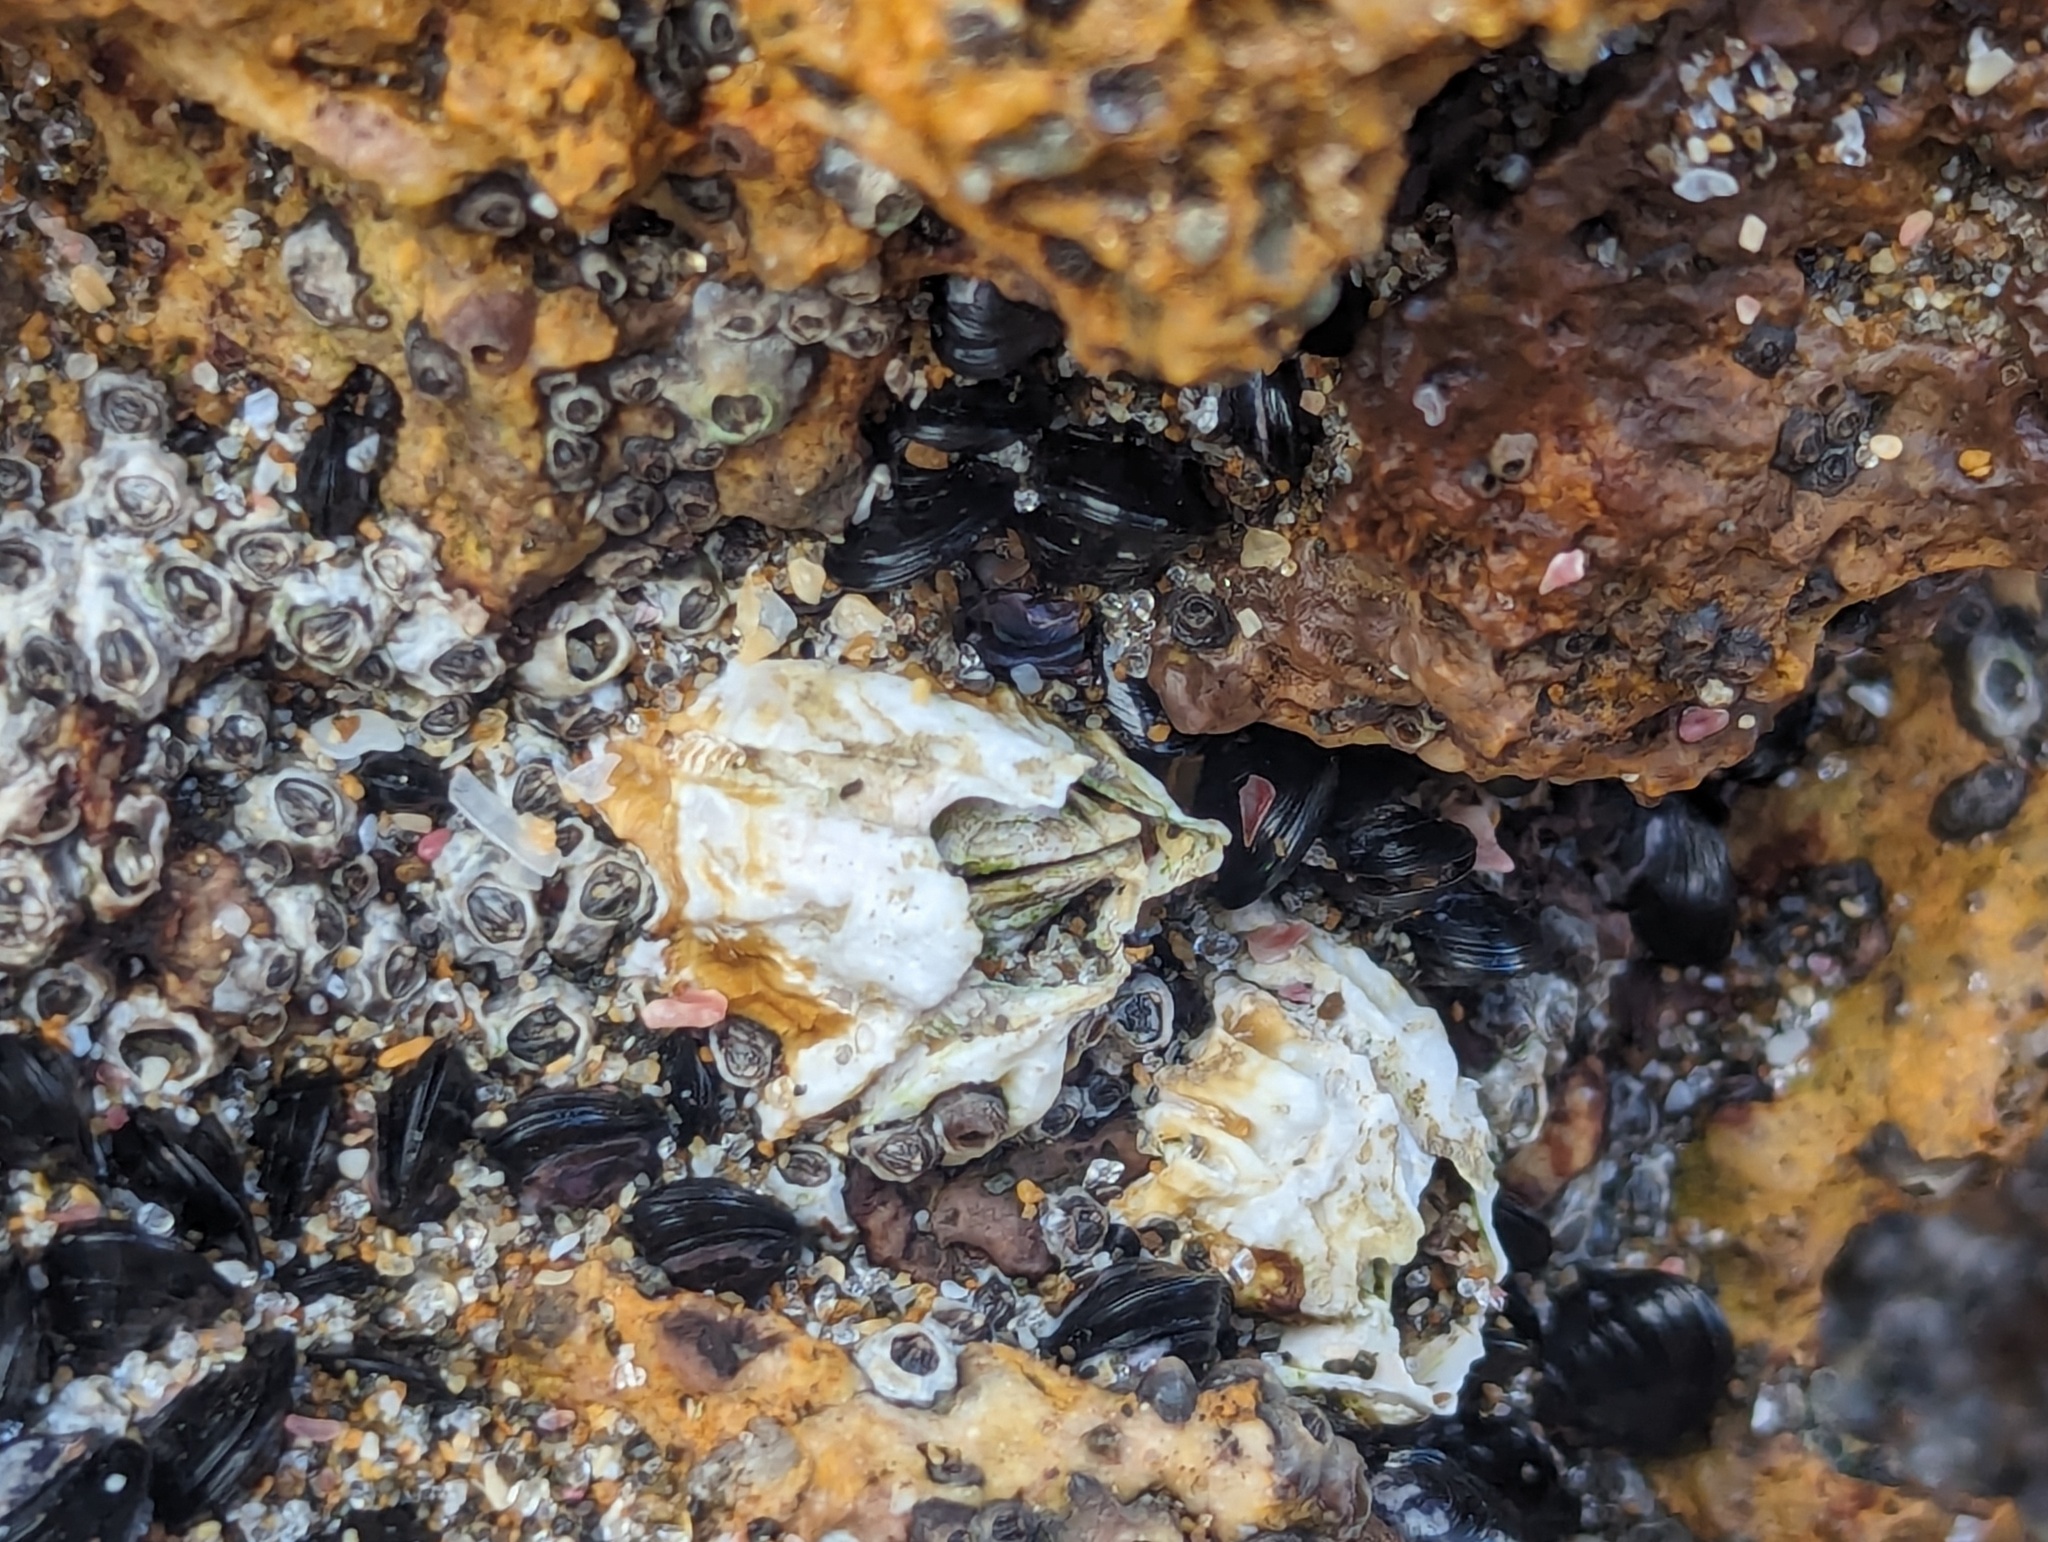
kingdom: Animalia
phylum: Arthropoda
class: Maxillopoda
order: Sessilia
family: Tetraclitidae
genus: Epopella
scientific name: Epopella plicata
